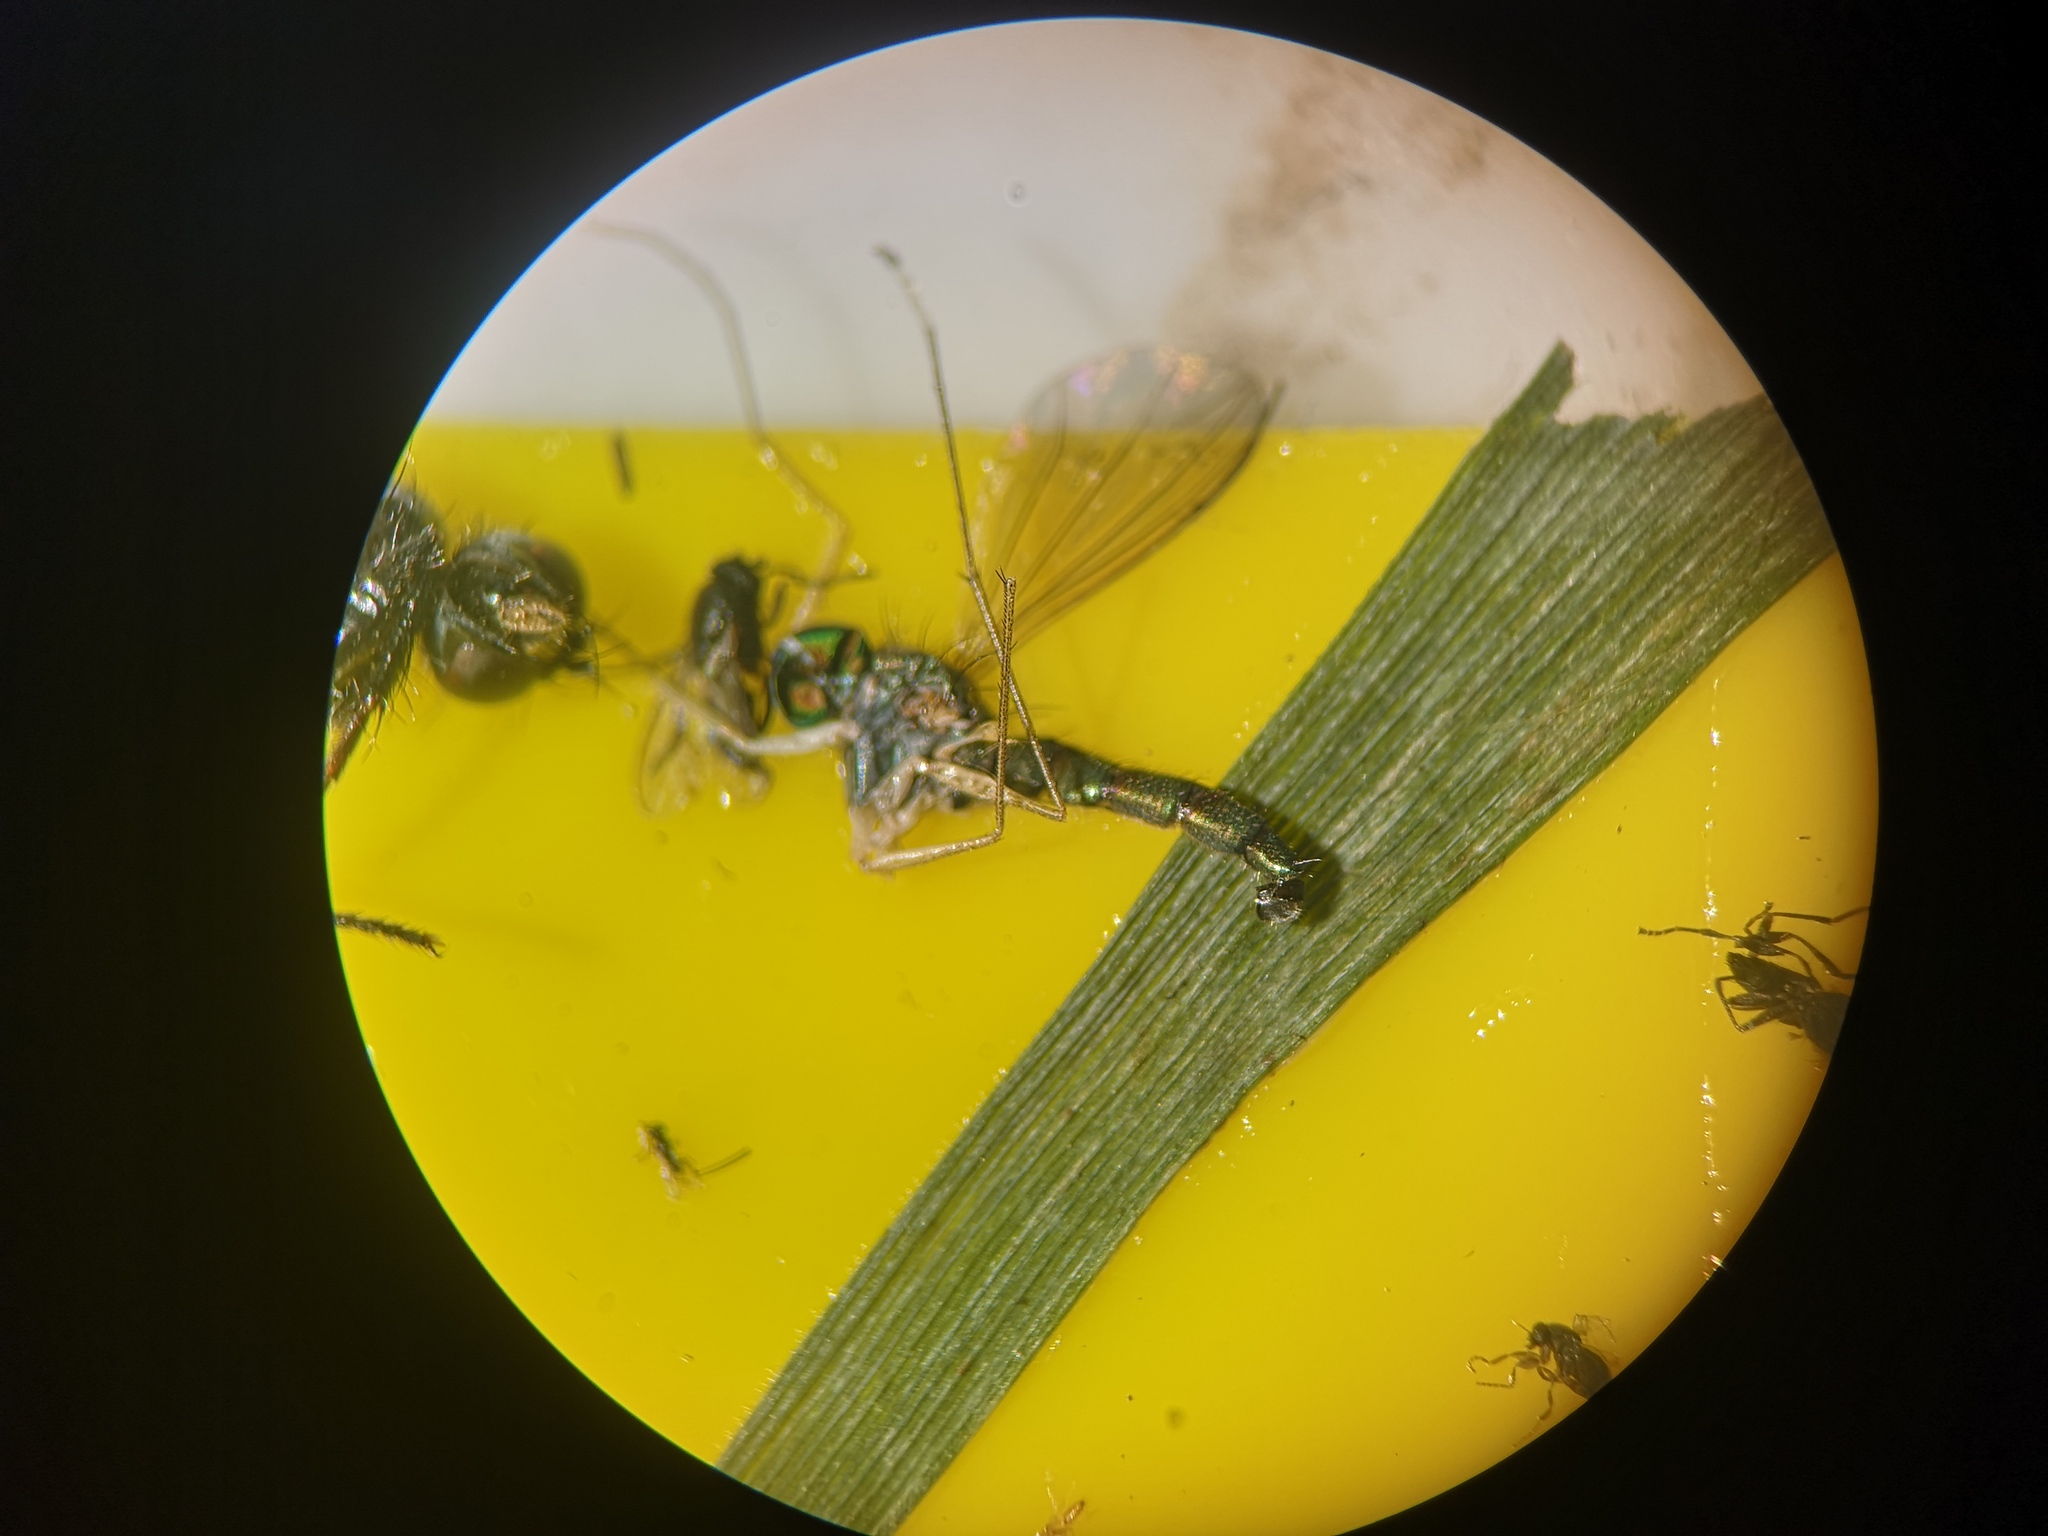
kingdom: Animalia
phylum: Arthropoda
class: Insecta
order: Diptera
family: Dolichopodidae
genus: Sciapus
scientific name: Sciapus platypterus
